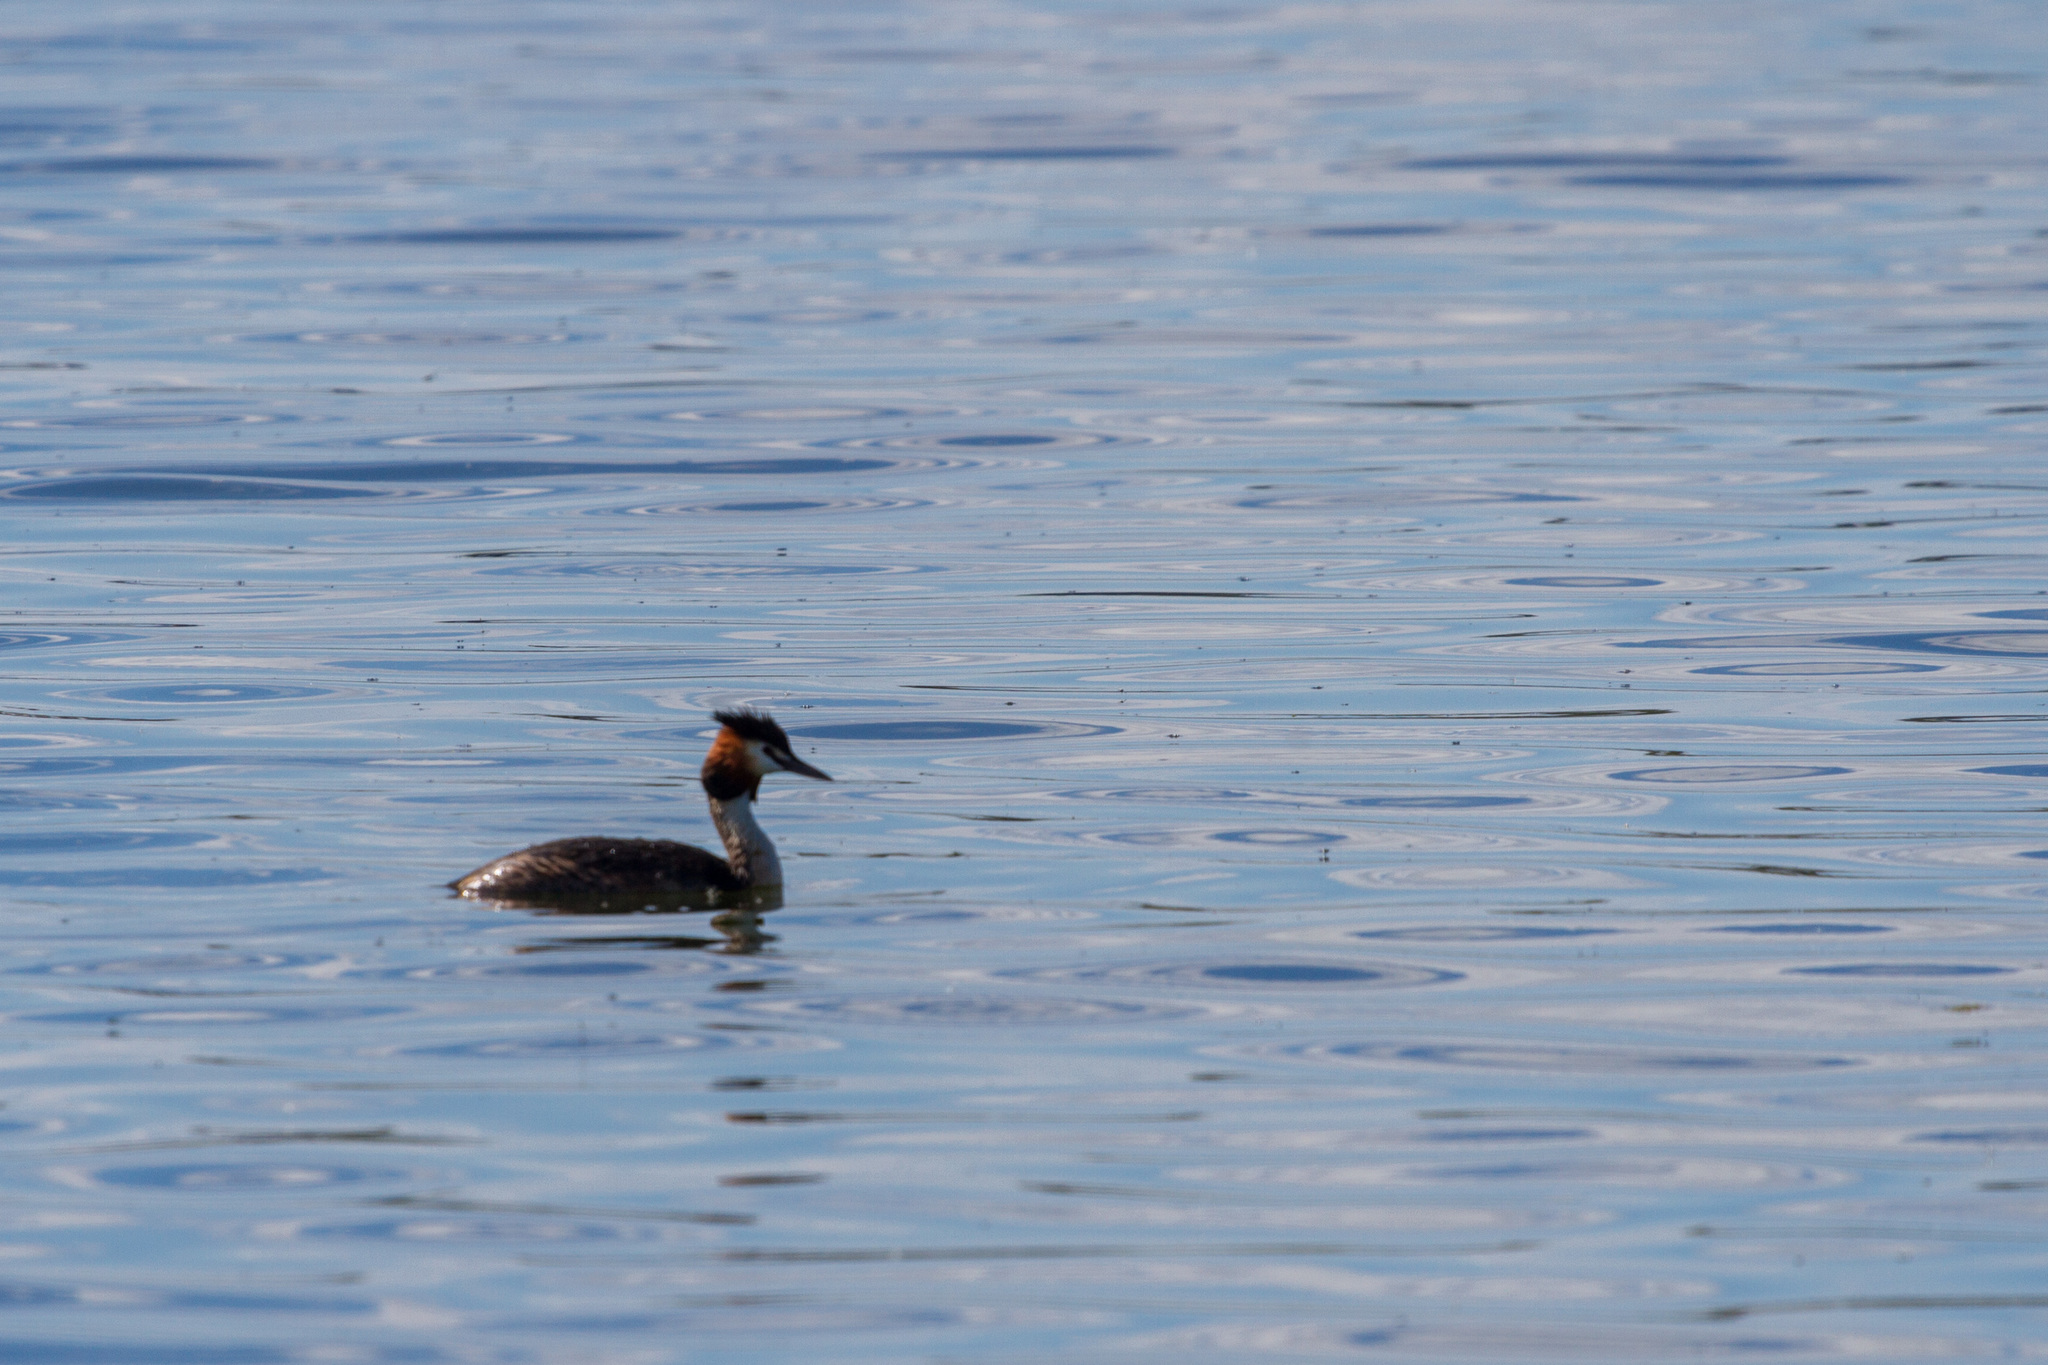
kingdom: Animalia
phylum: Chordata
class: Aves
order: Podicipediformes
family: Podicipedidae
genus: Podiceps
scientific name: Podiceps cristatus
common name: Great crested grebe
